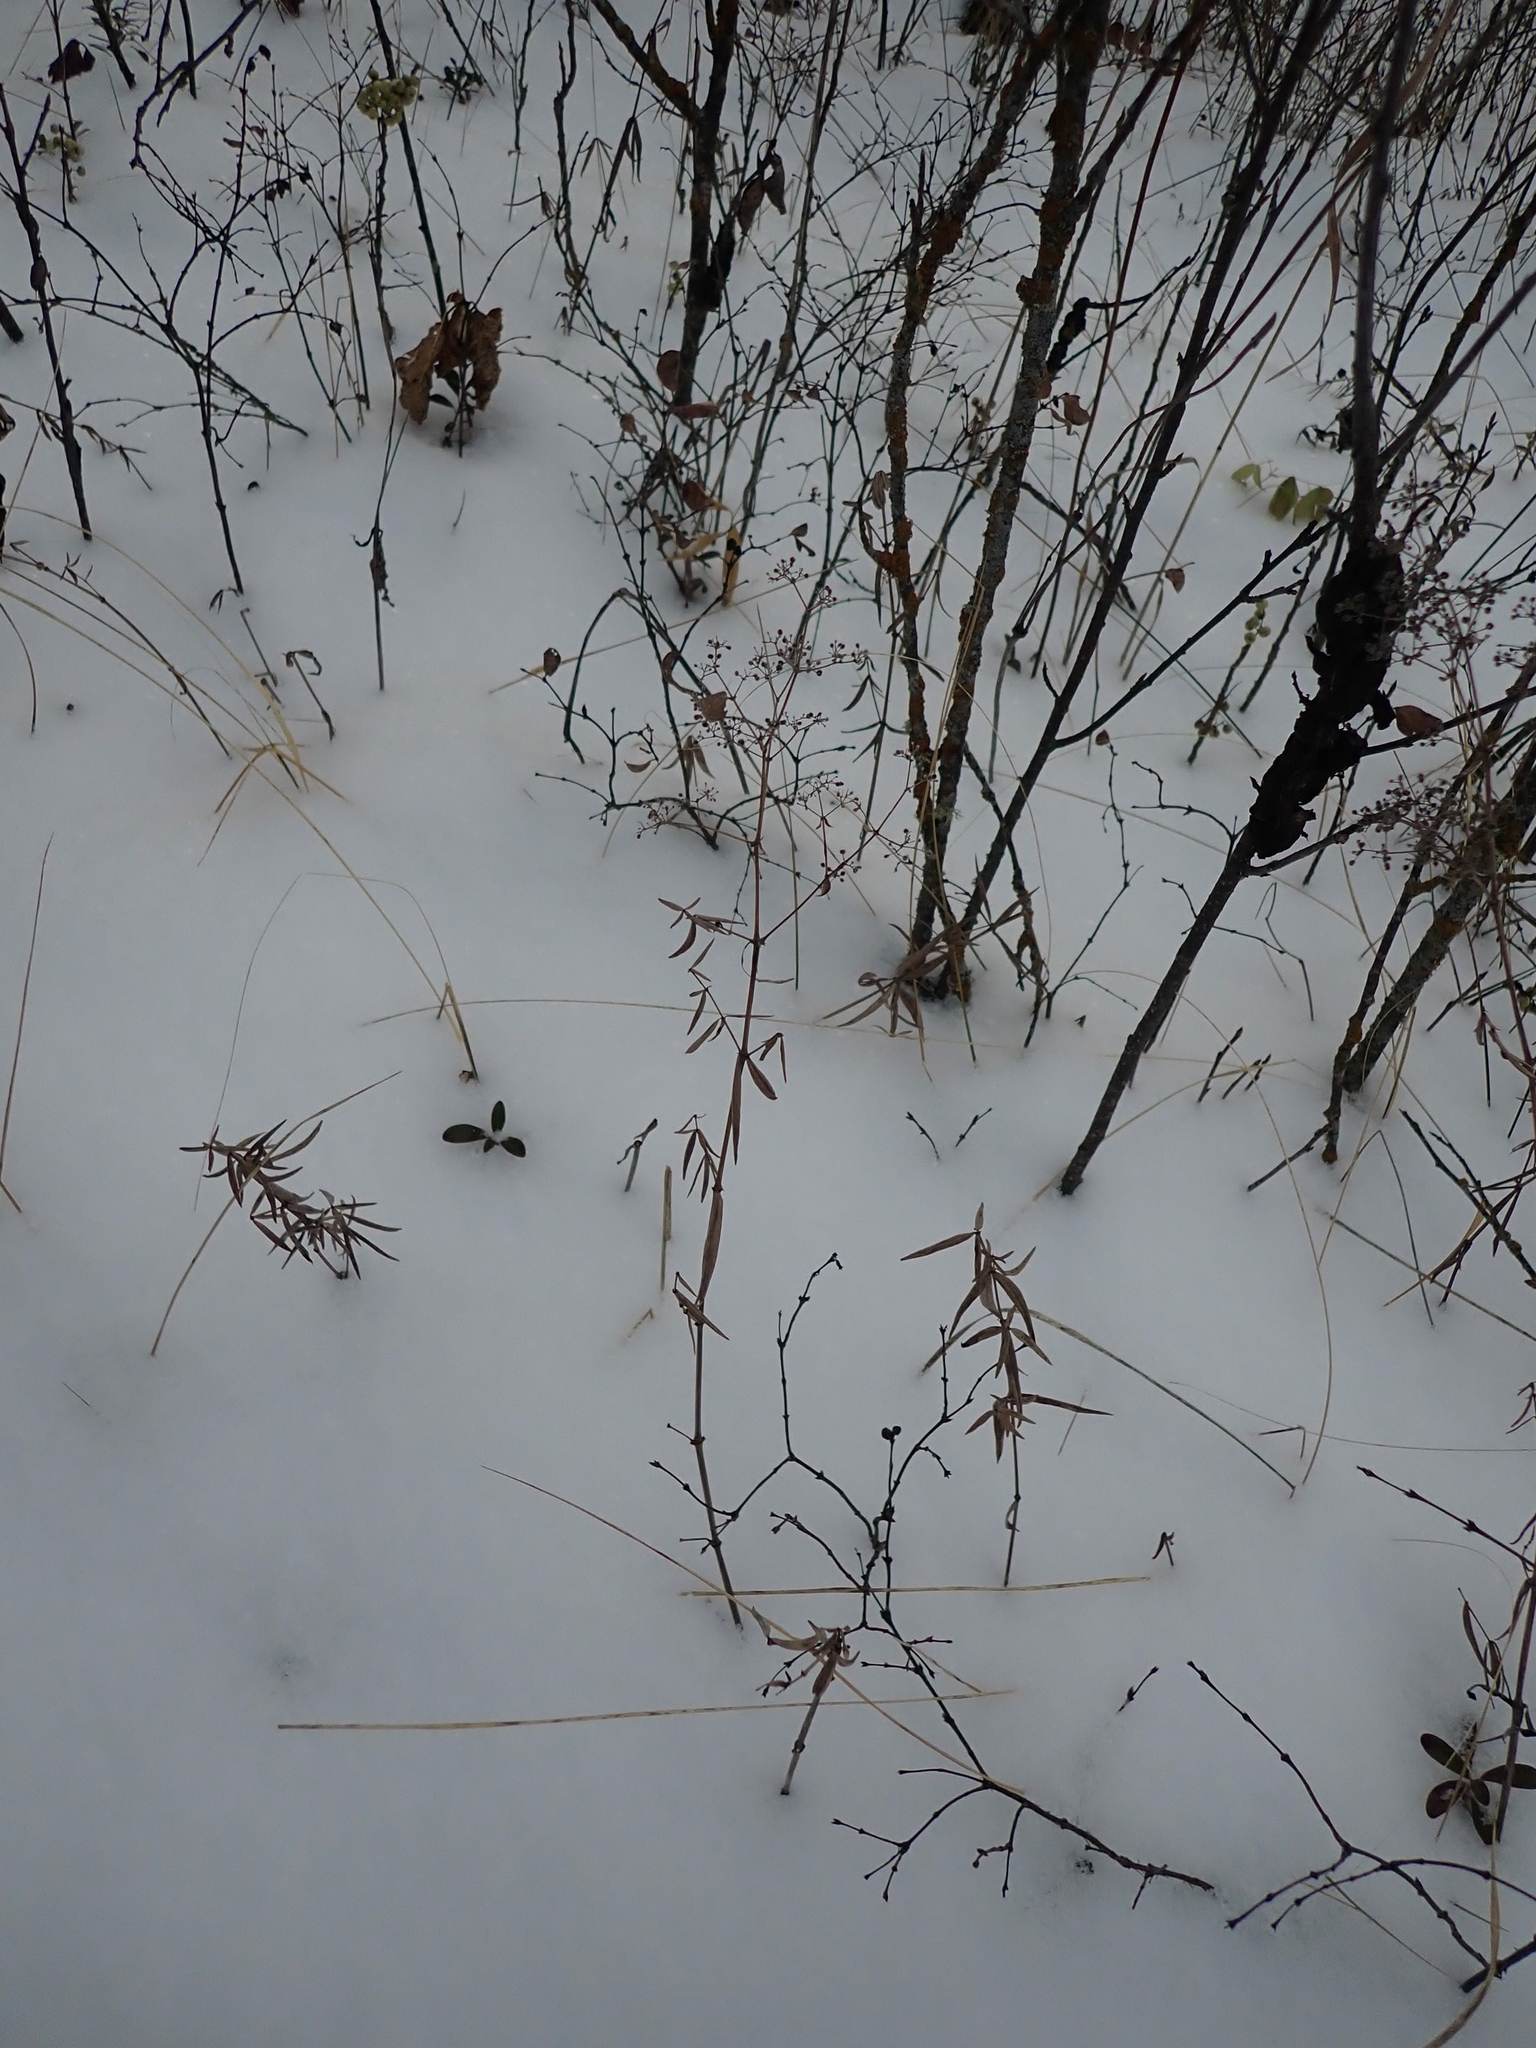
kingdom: Plantae
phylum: Tracheophyta
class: Magnoliopsida
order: Gentianales
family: Rubiaceae
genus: Galium
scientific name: Galium boreale
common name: Northern bedstraw
